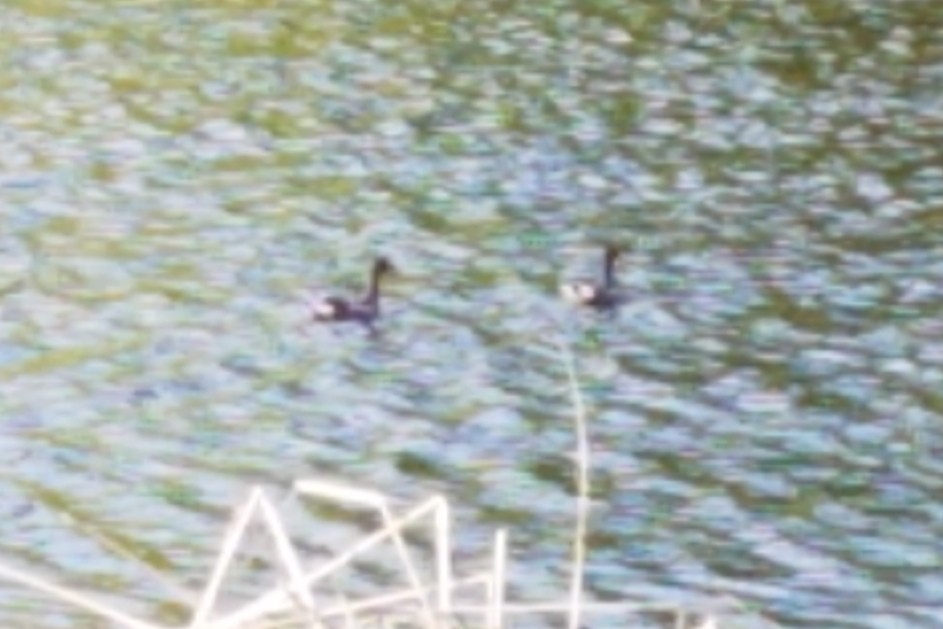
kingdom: Animalia
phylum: Chordata
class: Aves
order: Gruiformes
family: Rallidae
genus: Gallinula
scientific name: Gallinula chloropus
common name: Common moorhen
